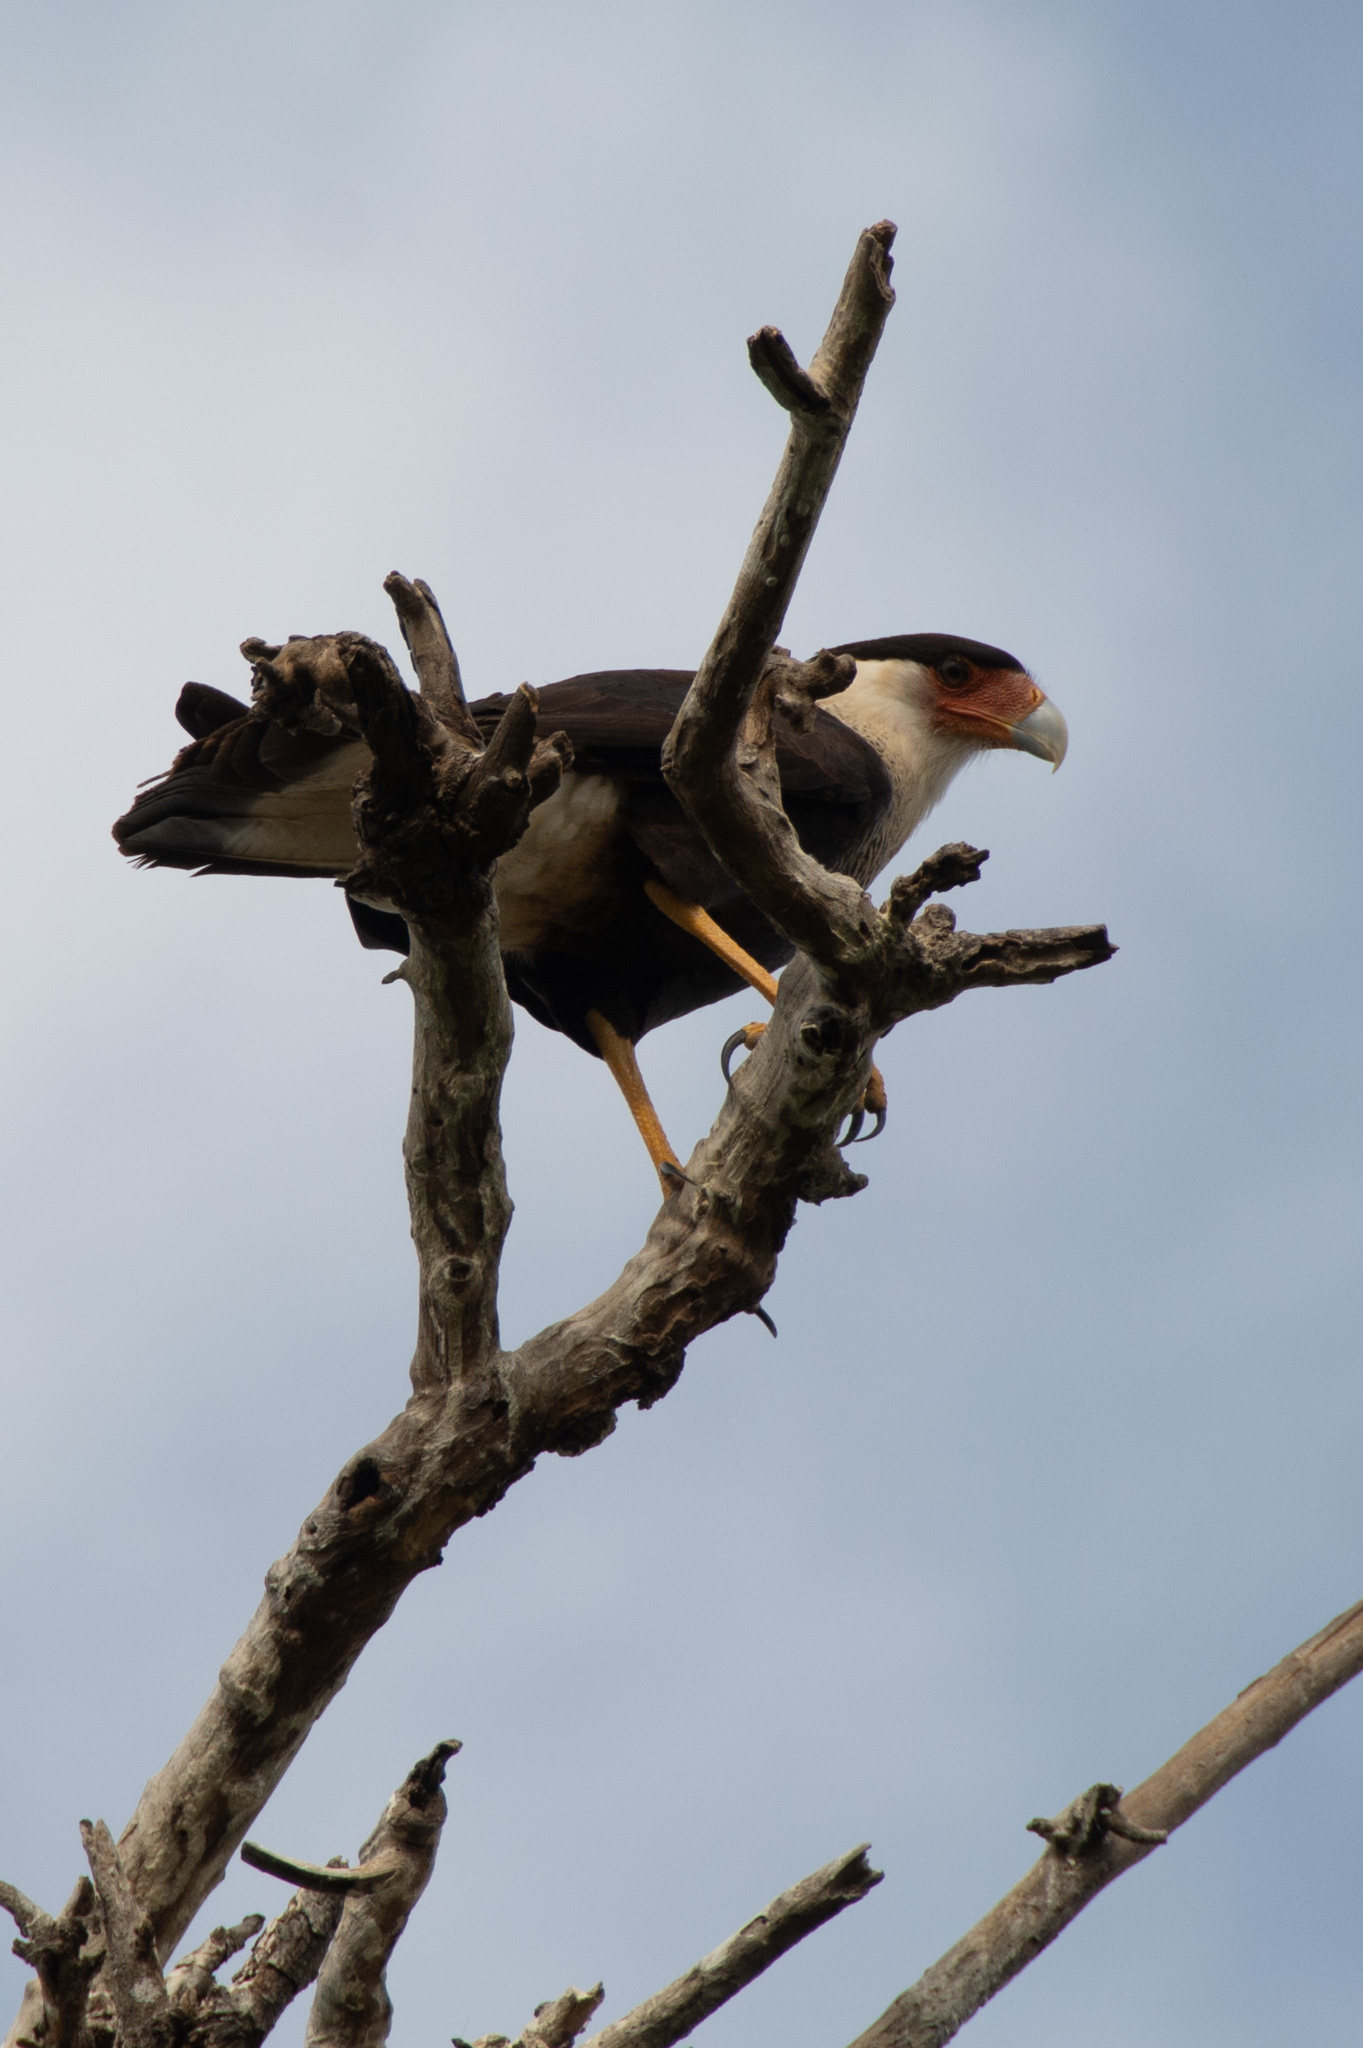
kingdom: Animalia
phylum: Chordata
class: Aves
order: Falconiformes
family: Falconidae
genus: Caracara
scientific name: Caracara plancus
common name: Southern caracara
